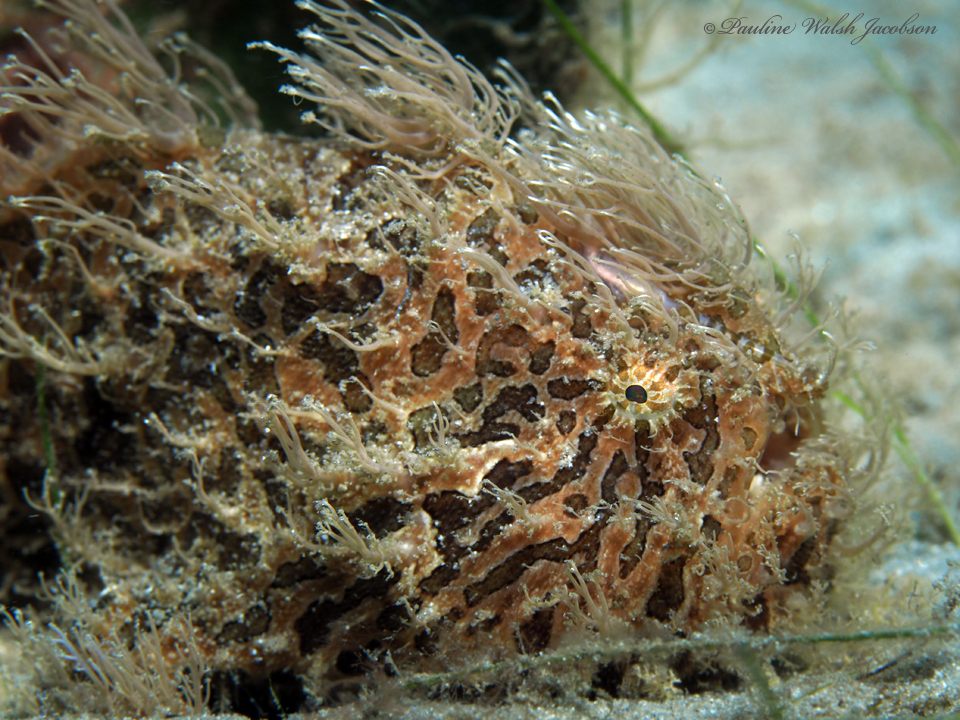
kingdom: Animalia
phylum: Chordata
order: Lophiiformes
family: Antennariidae
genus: Antennarius
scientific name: Antennarius striatus
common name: Striated frogfish
